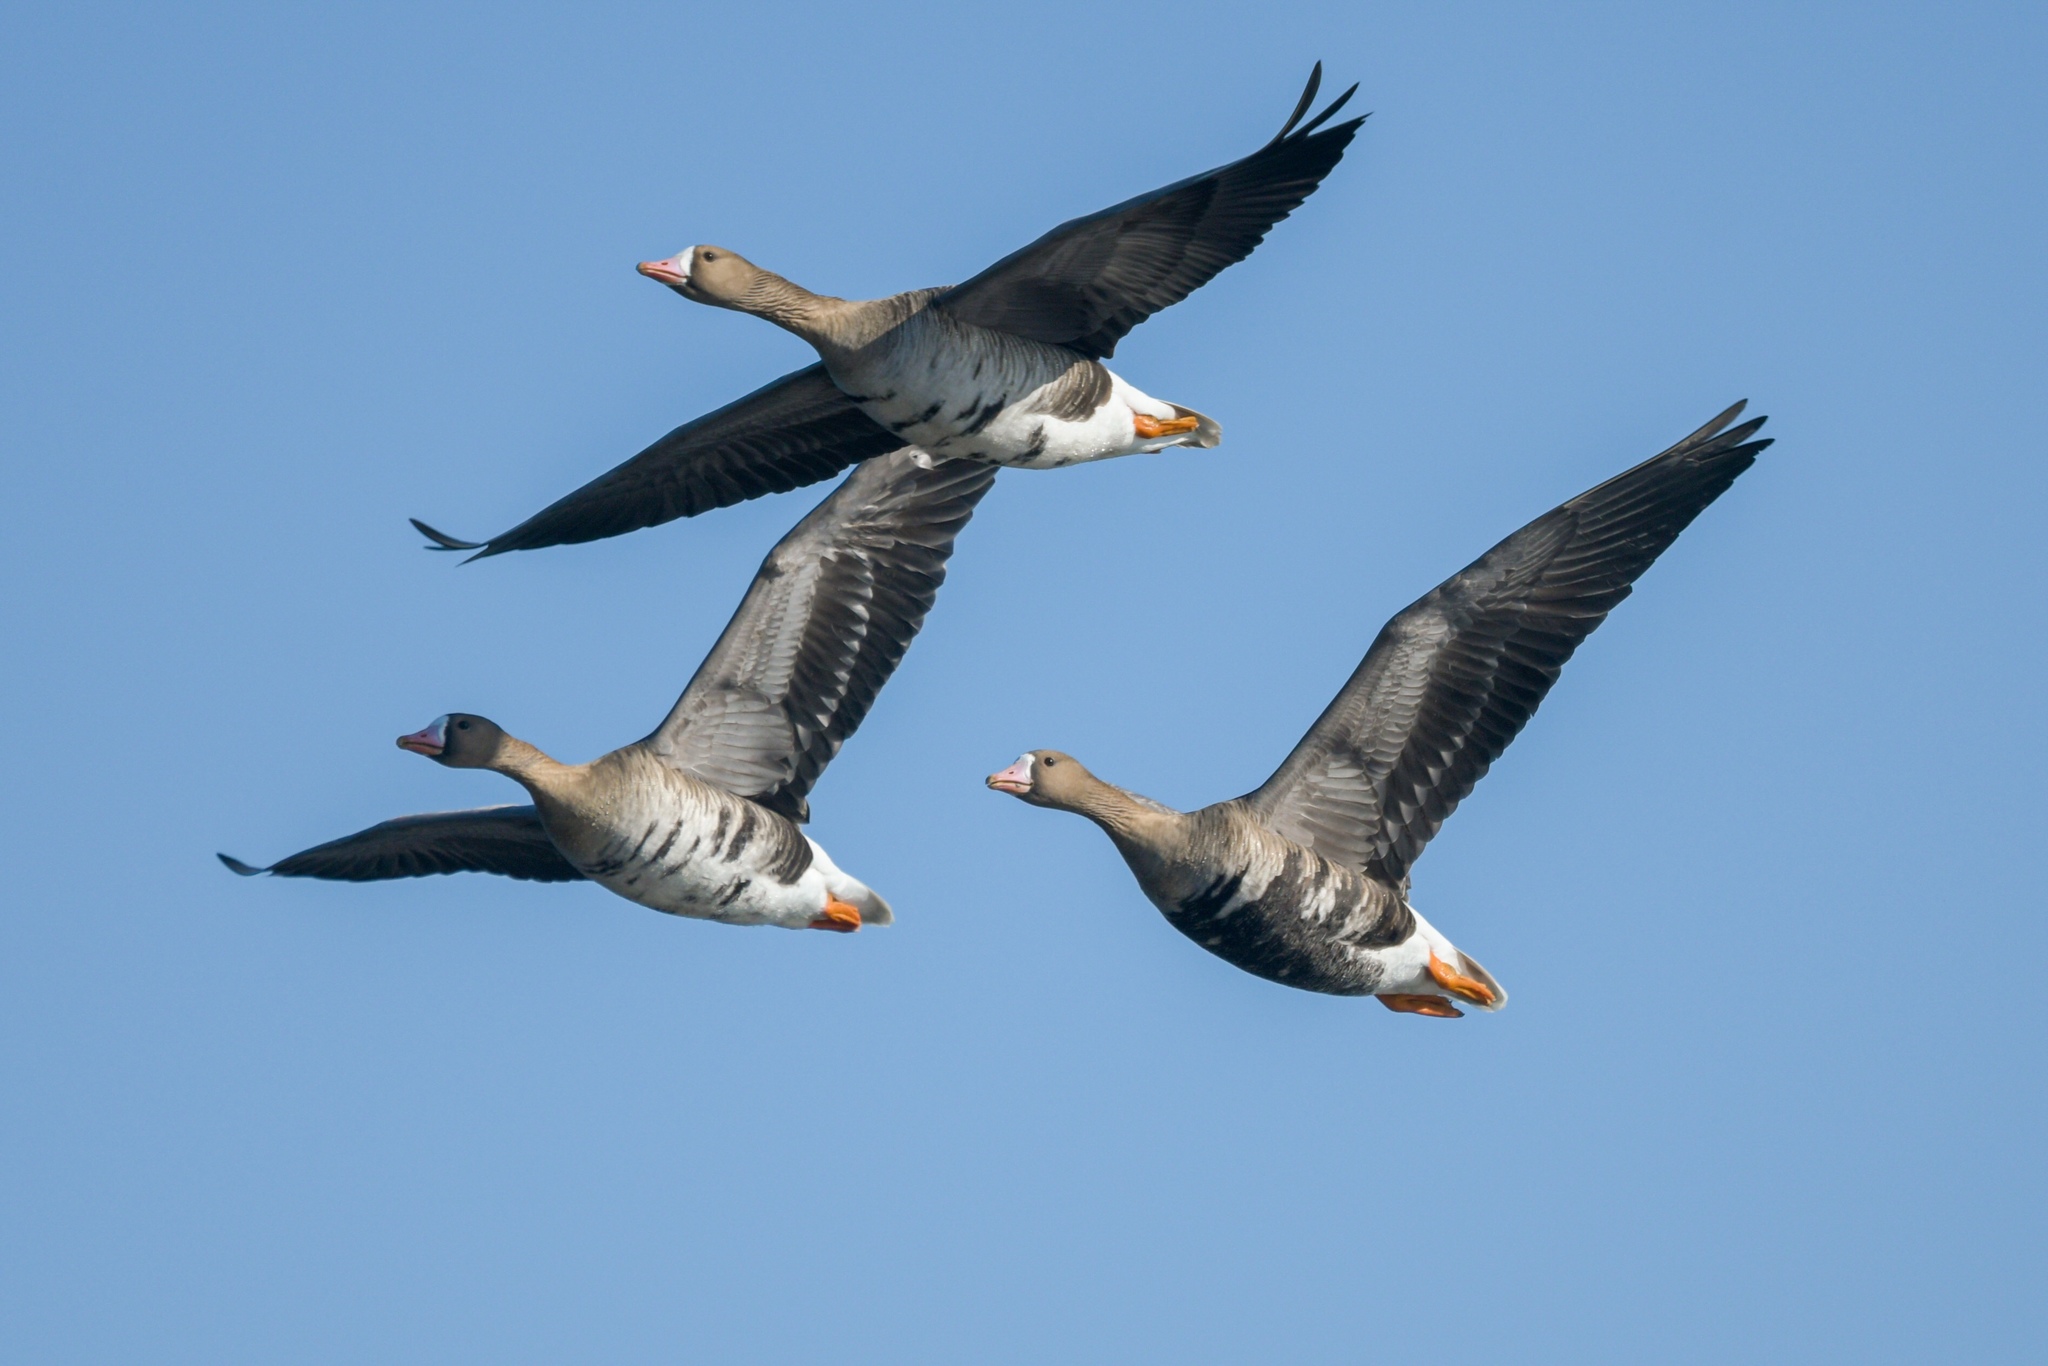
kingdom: Animalia
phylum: Chordata
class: Aves
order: Anseriformes
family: Anatidae
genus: Anser
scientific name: Anser albifrons
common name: Greater white-fronted goose
